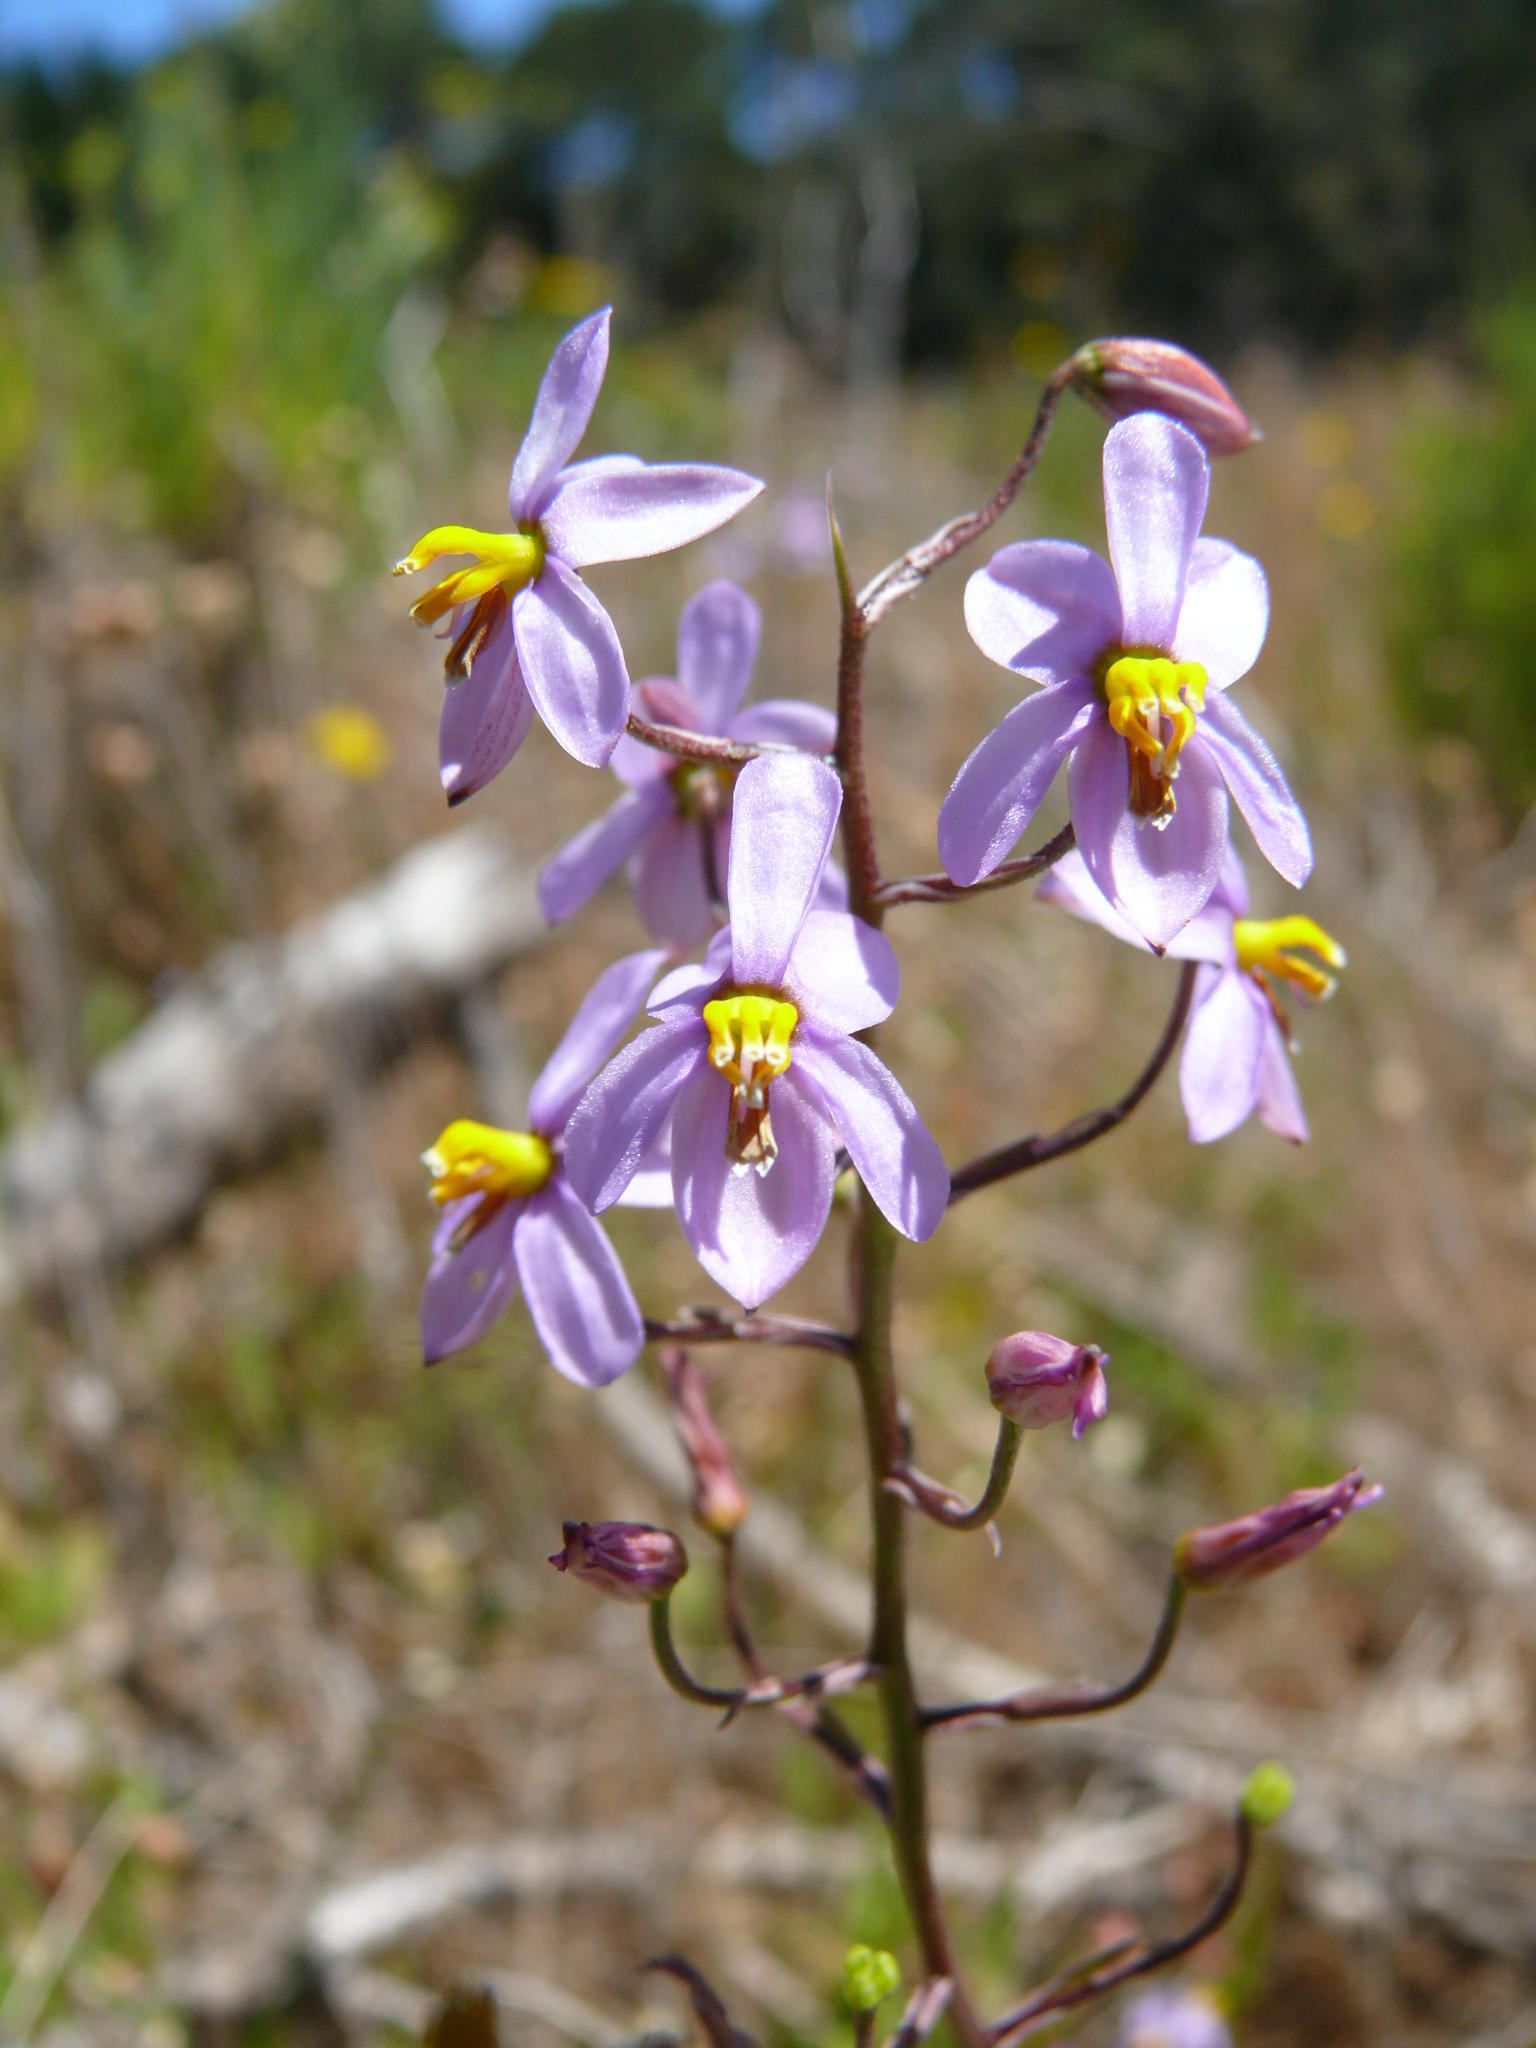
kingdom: Plantae
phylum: Tracheophyta
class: Liliopsida
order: Asparagales
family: Tecophilaeaceae
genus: Cyanella
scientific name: Cyanella hyacinthoides
